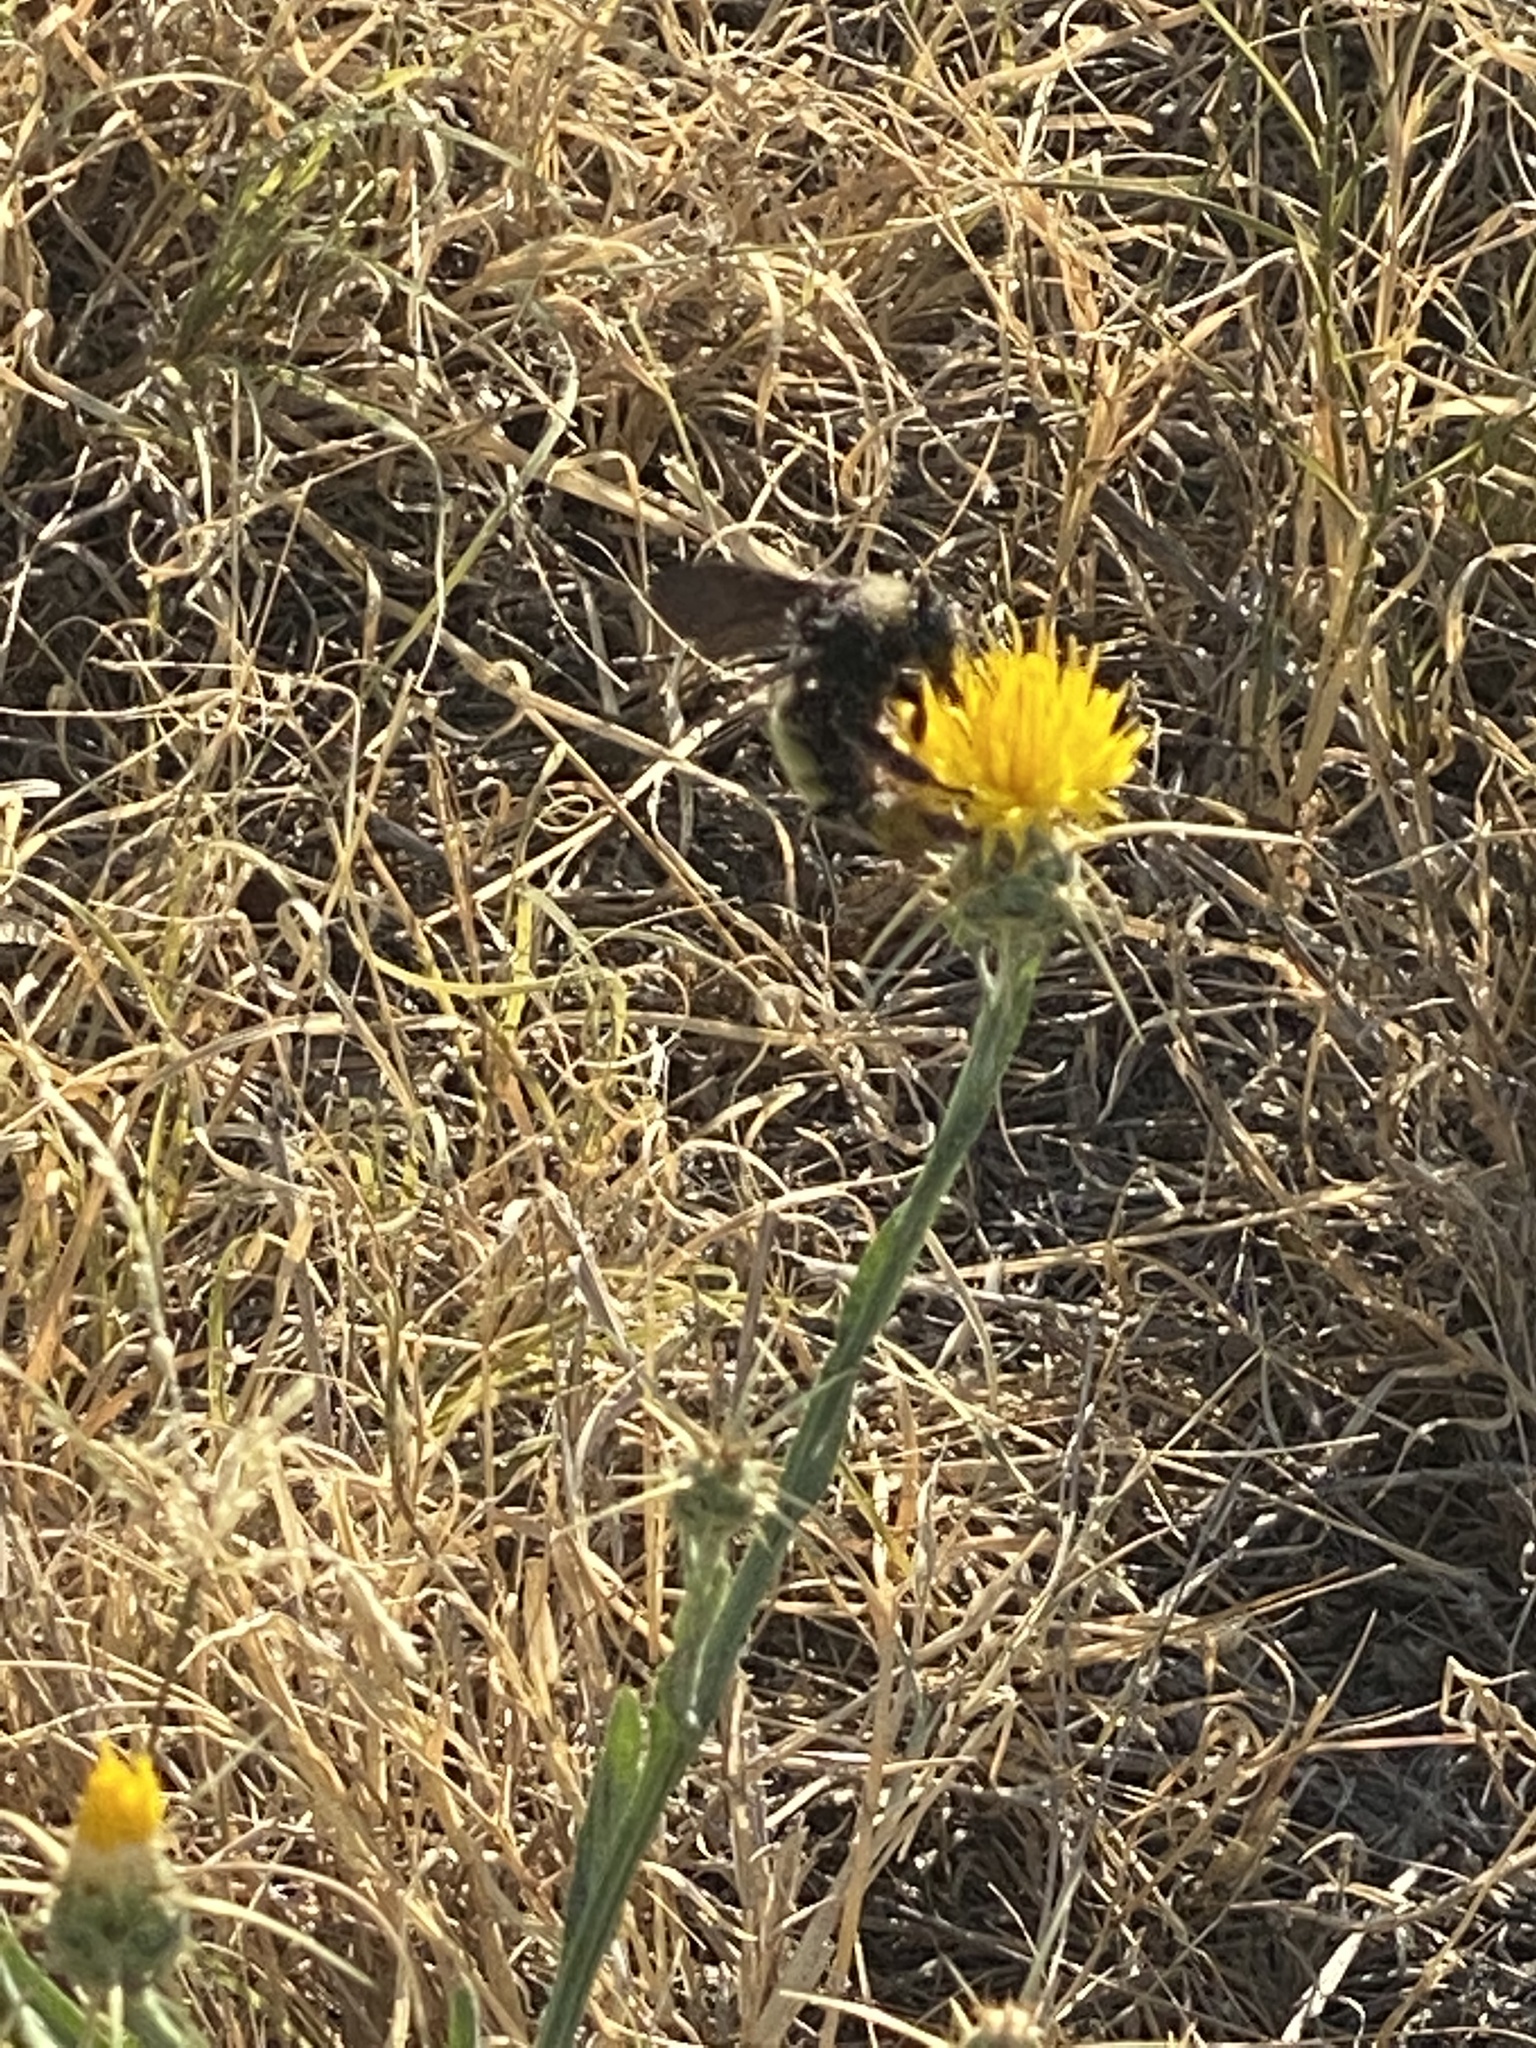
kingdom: Animalia
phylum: Arthropoda
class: Insecta
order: Hymenoptera
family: Apidae
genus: Bombus
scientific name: Bombus pensylvanicus
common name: Bumble bee
